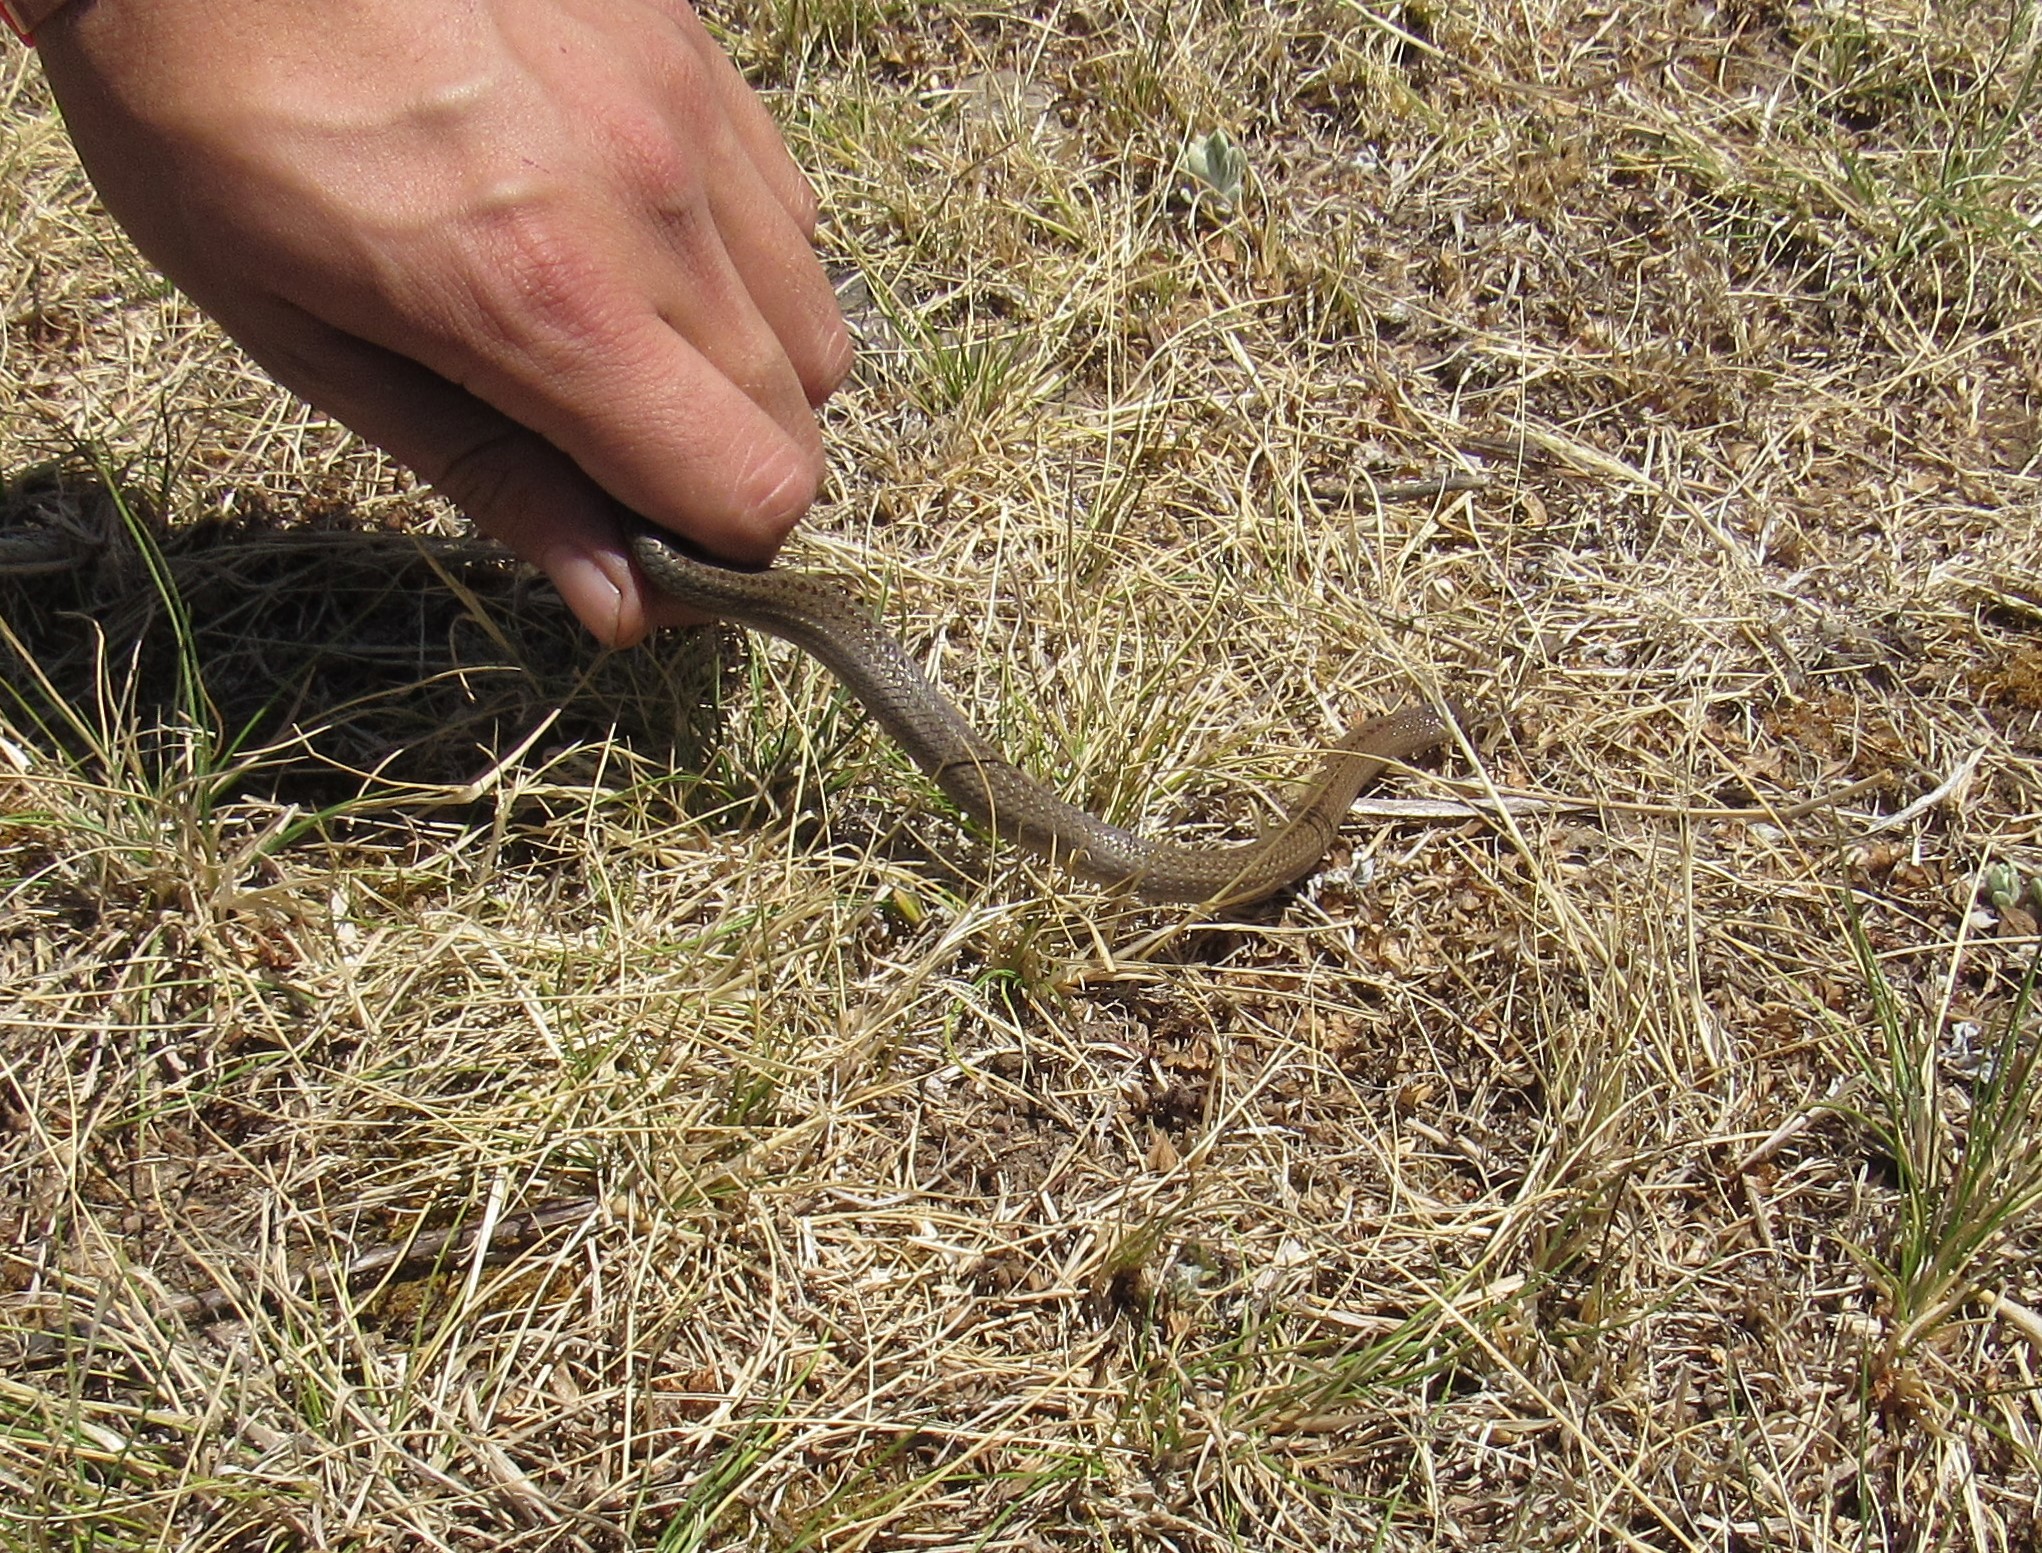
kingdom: Animalia
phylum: Chordata
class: Squamata
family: Colubridae
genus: Conopsis
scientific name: Conopsis lineata
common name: Lined tolucan earthsnake
